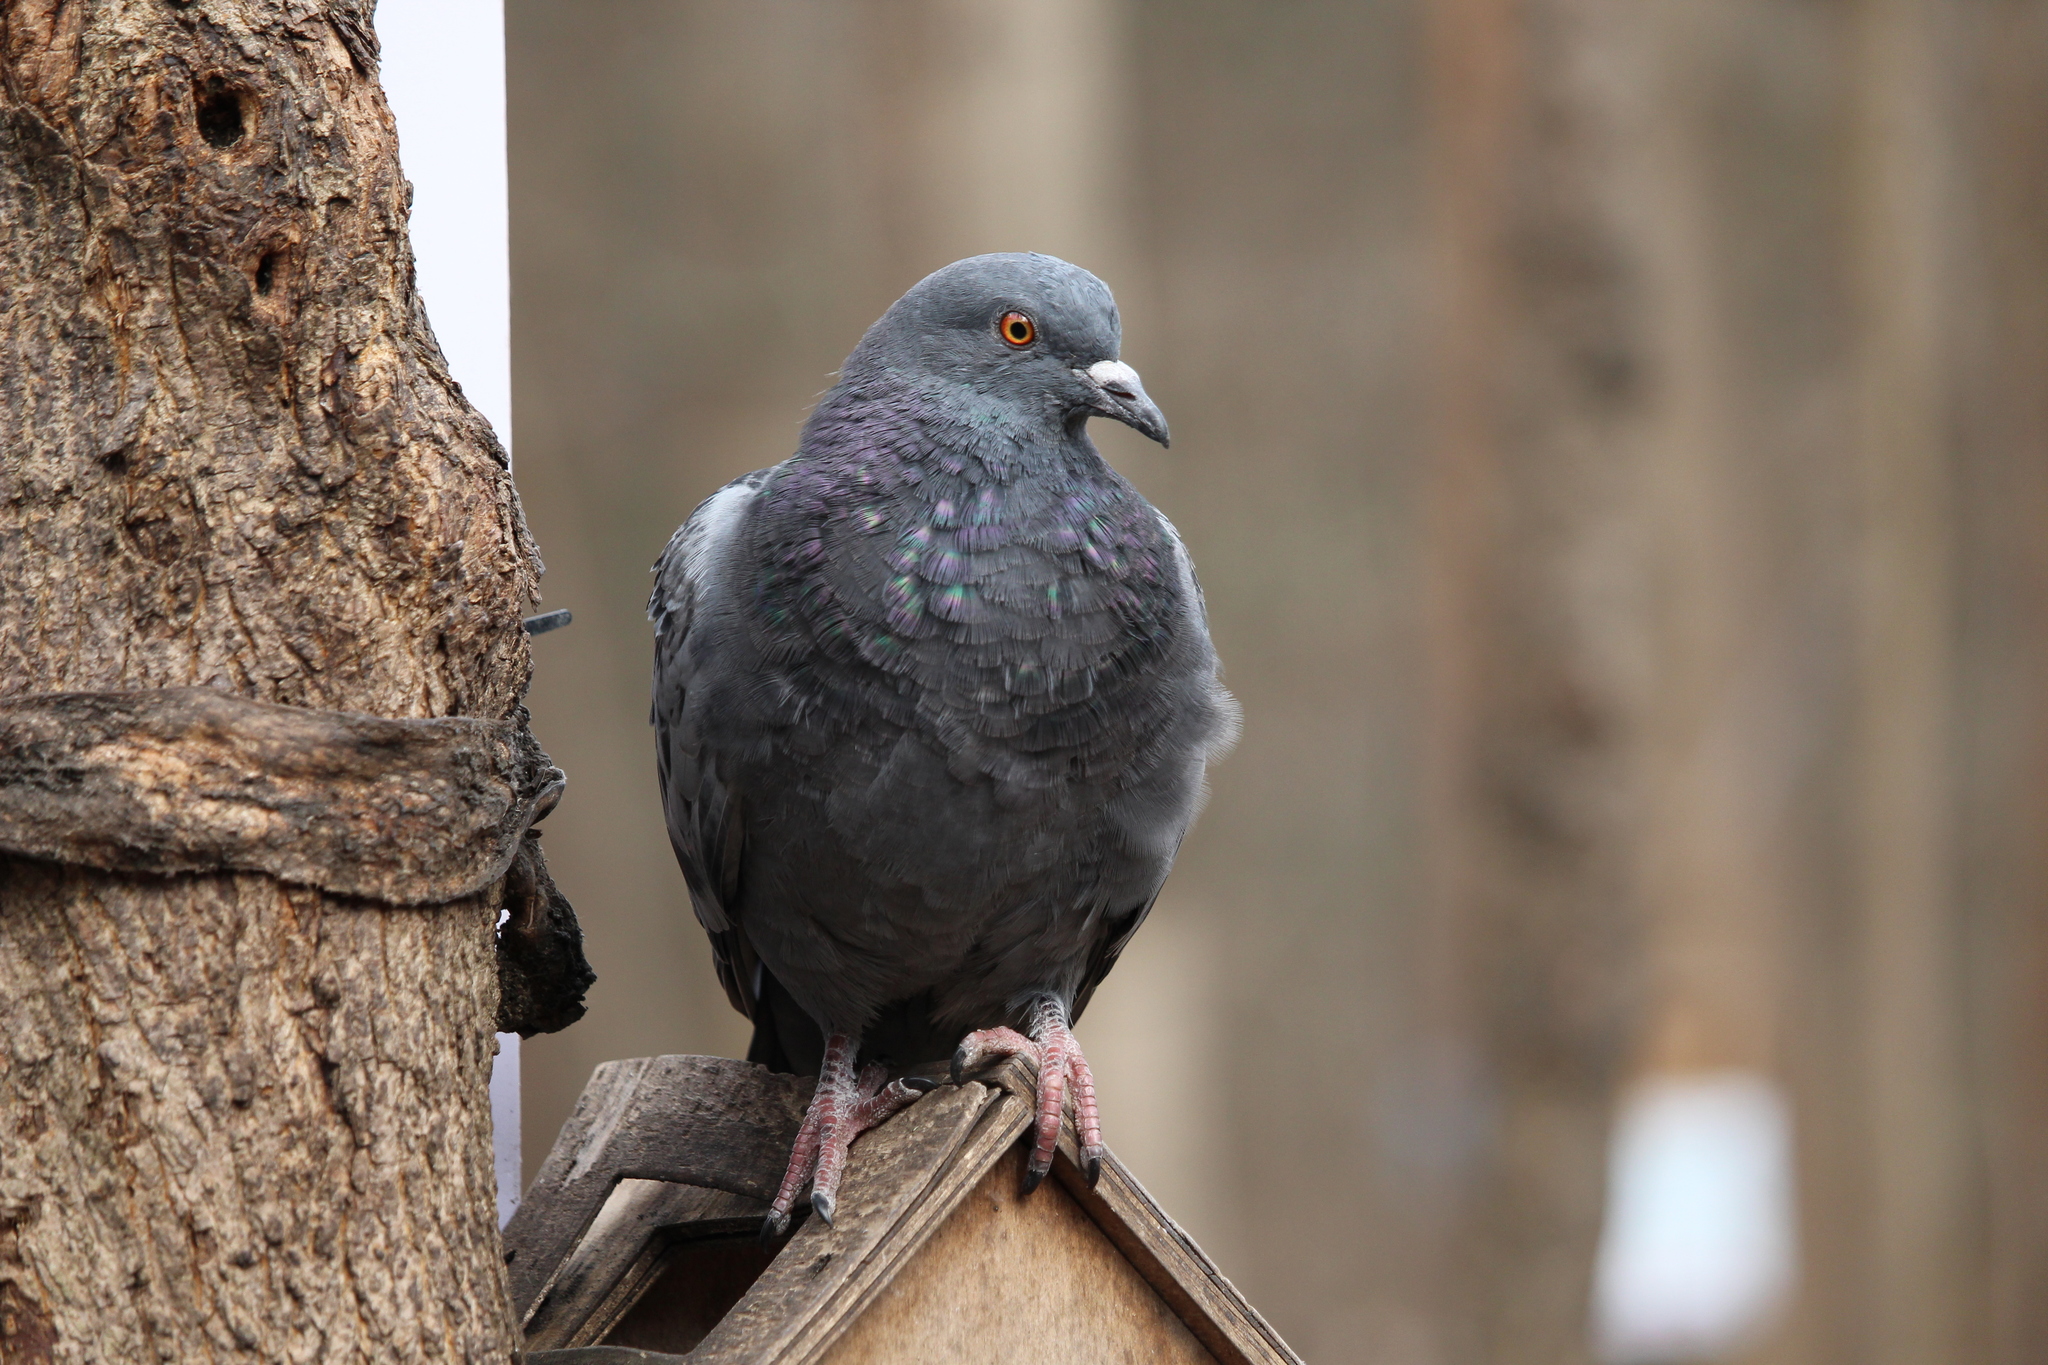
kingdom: Animalia
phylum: Chordata
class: Aves
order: Columbiformes
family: Columbidae
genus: Columba
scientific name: Columba livia
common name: Rock pigeon
